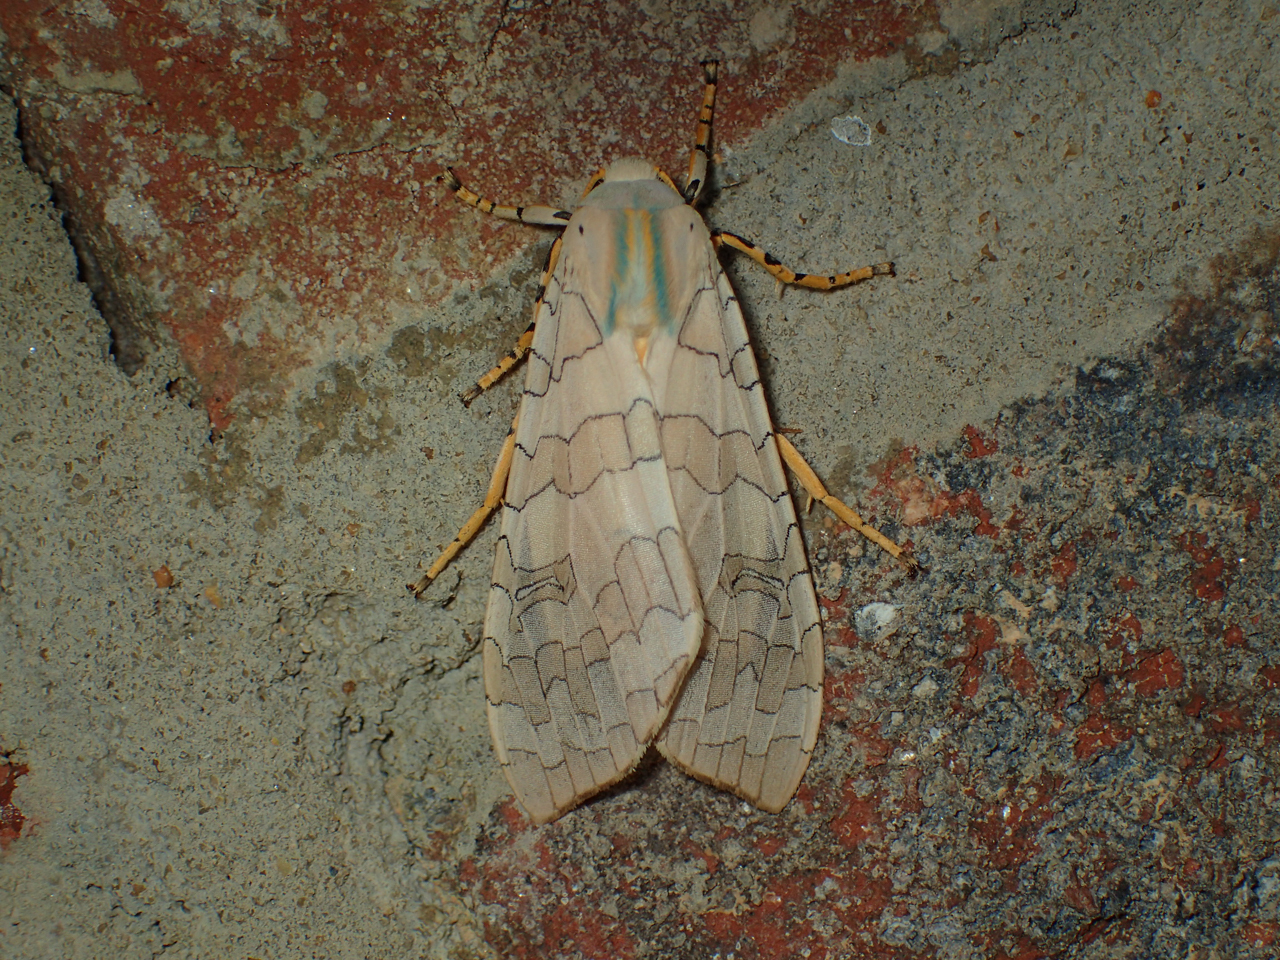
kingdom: Animalia
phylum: Arthropoda
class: Insecta
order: Lepidoptera
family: Erebidae
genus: Halysidota
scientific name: Halysidota
